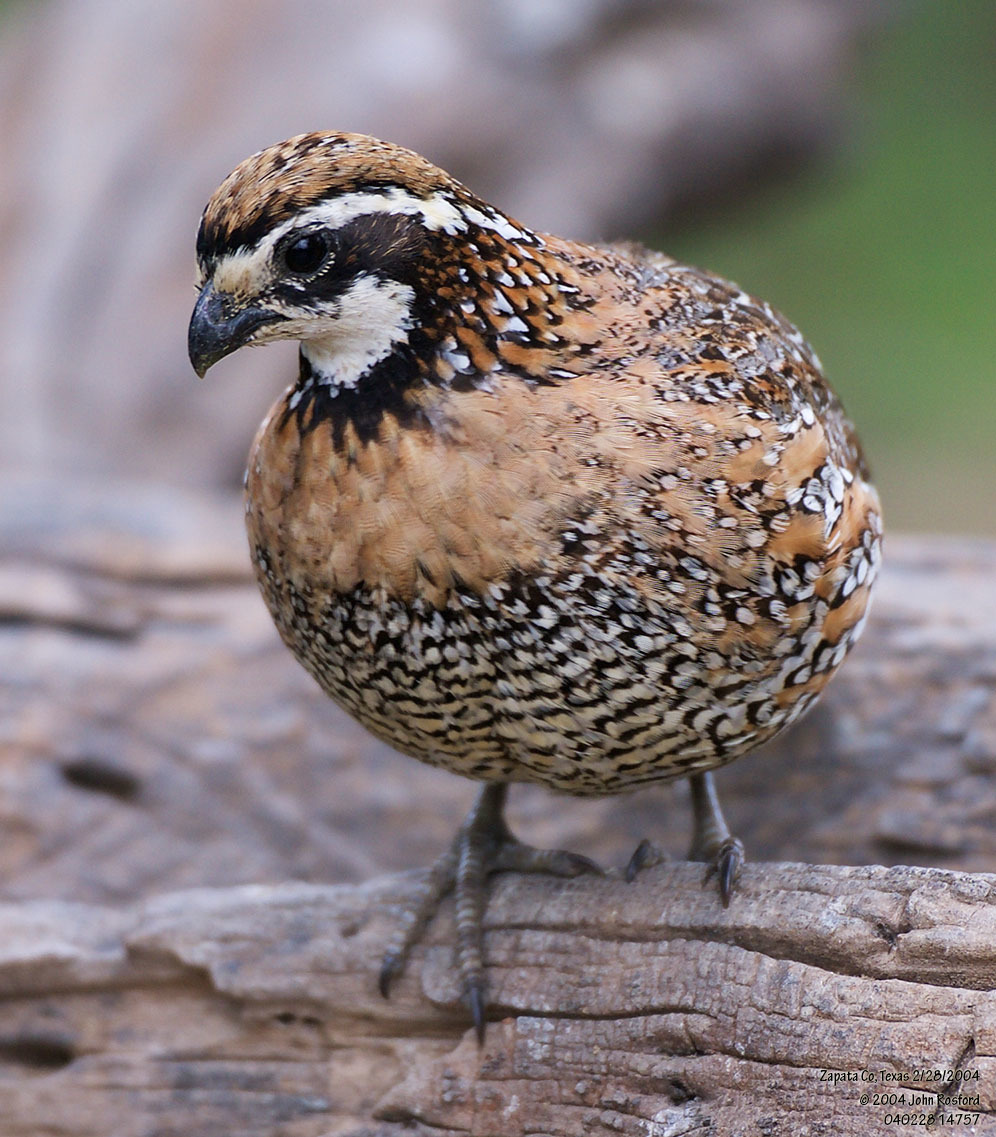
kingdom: Animalia
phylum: Chordata
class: Aves
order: Galliformes
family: Odontophoridae
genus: Colinus
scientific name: Colinus virginianus
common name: Northern bobwhite
